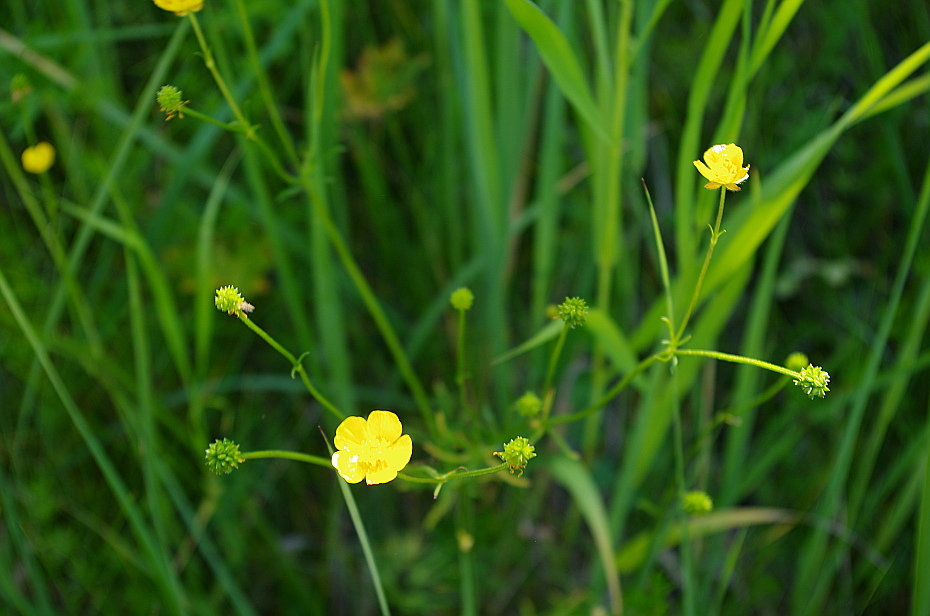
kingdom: Plantae
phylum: Tracheophyta
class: Magnoliopsida
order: Ranunculales
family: Ranunculaceae
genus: Ranunculus
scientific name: Ranunculus acris
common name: Meadow buttercup
